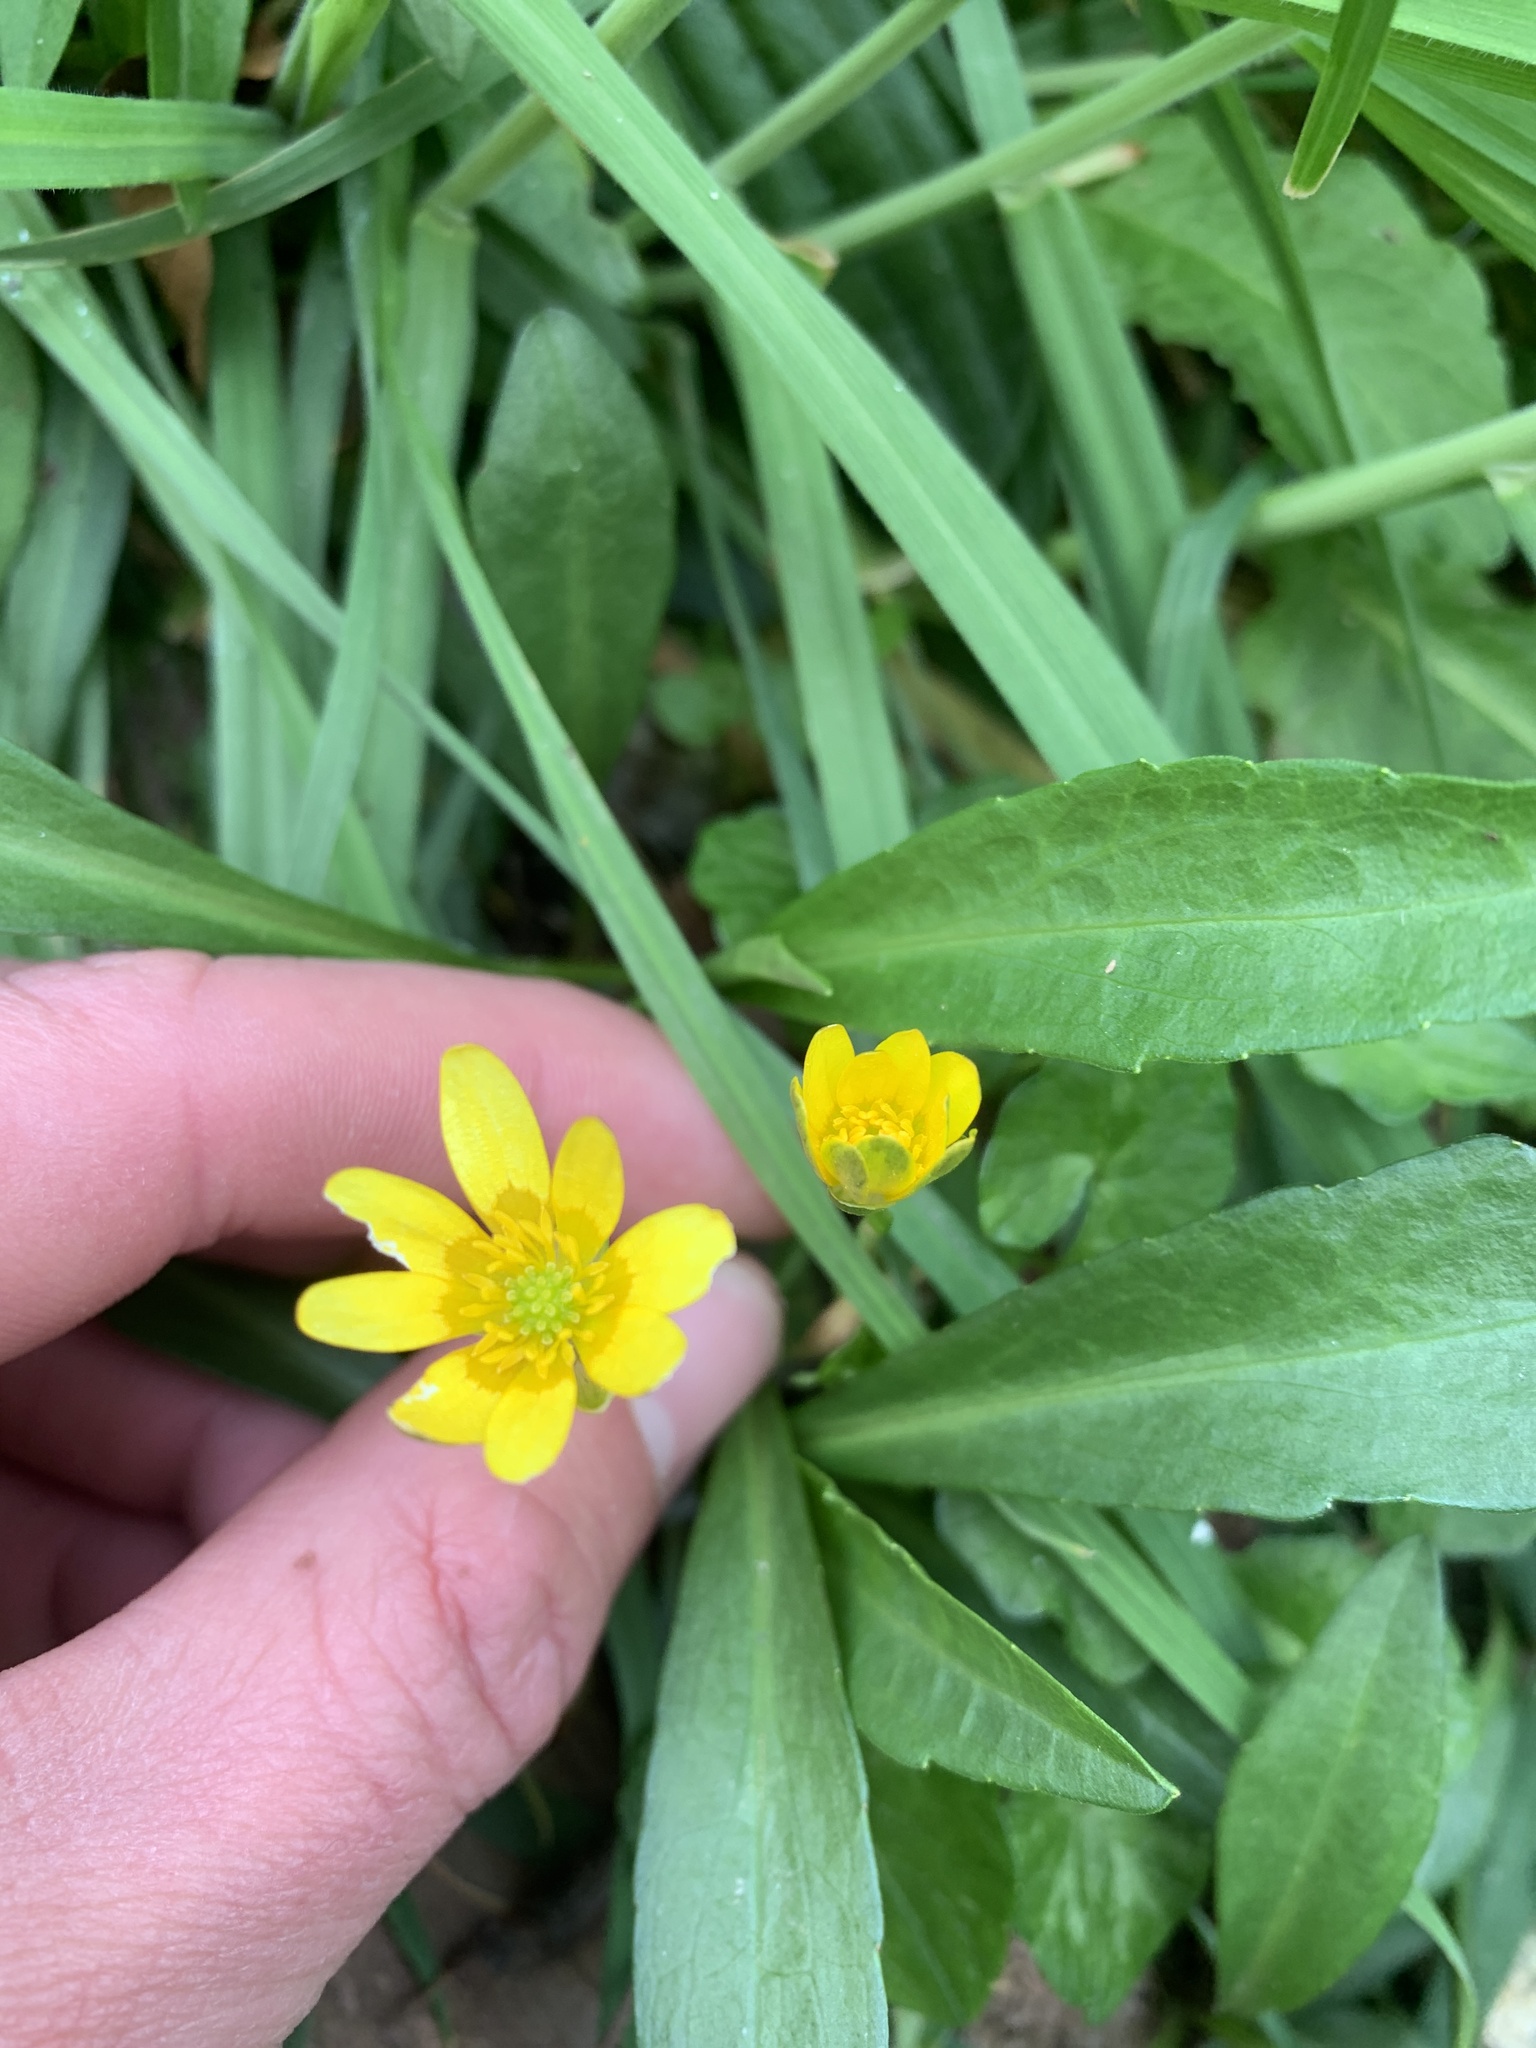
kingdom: Plantae
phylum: Tracheophyta
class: Magnoliopsida
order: Ranunculales
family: Ranunculaceae
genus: Ficaria
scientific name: Ficaria verna
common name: Lesser celandine
